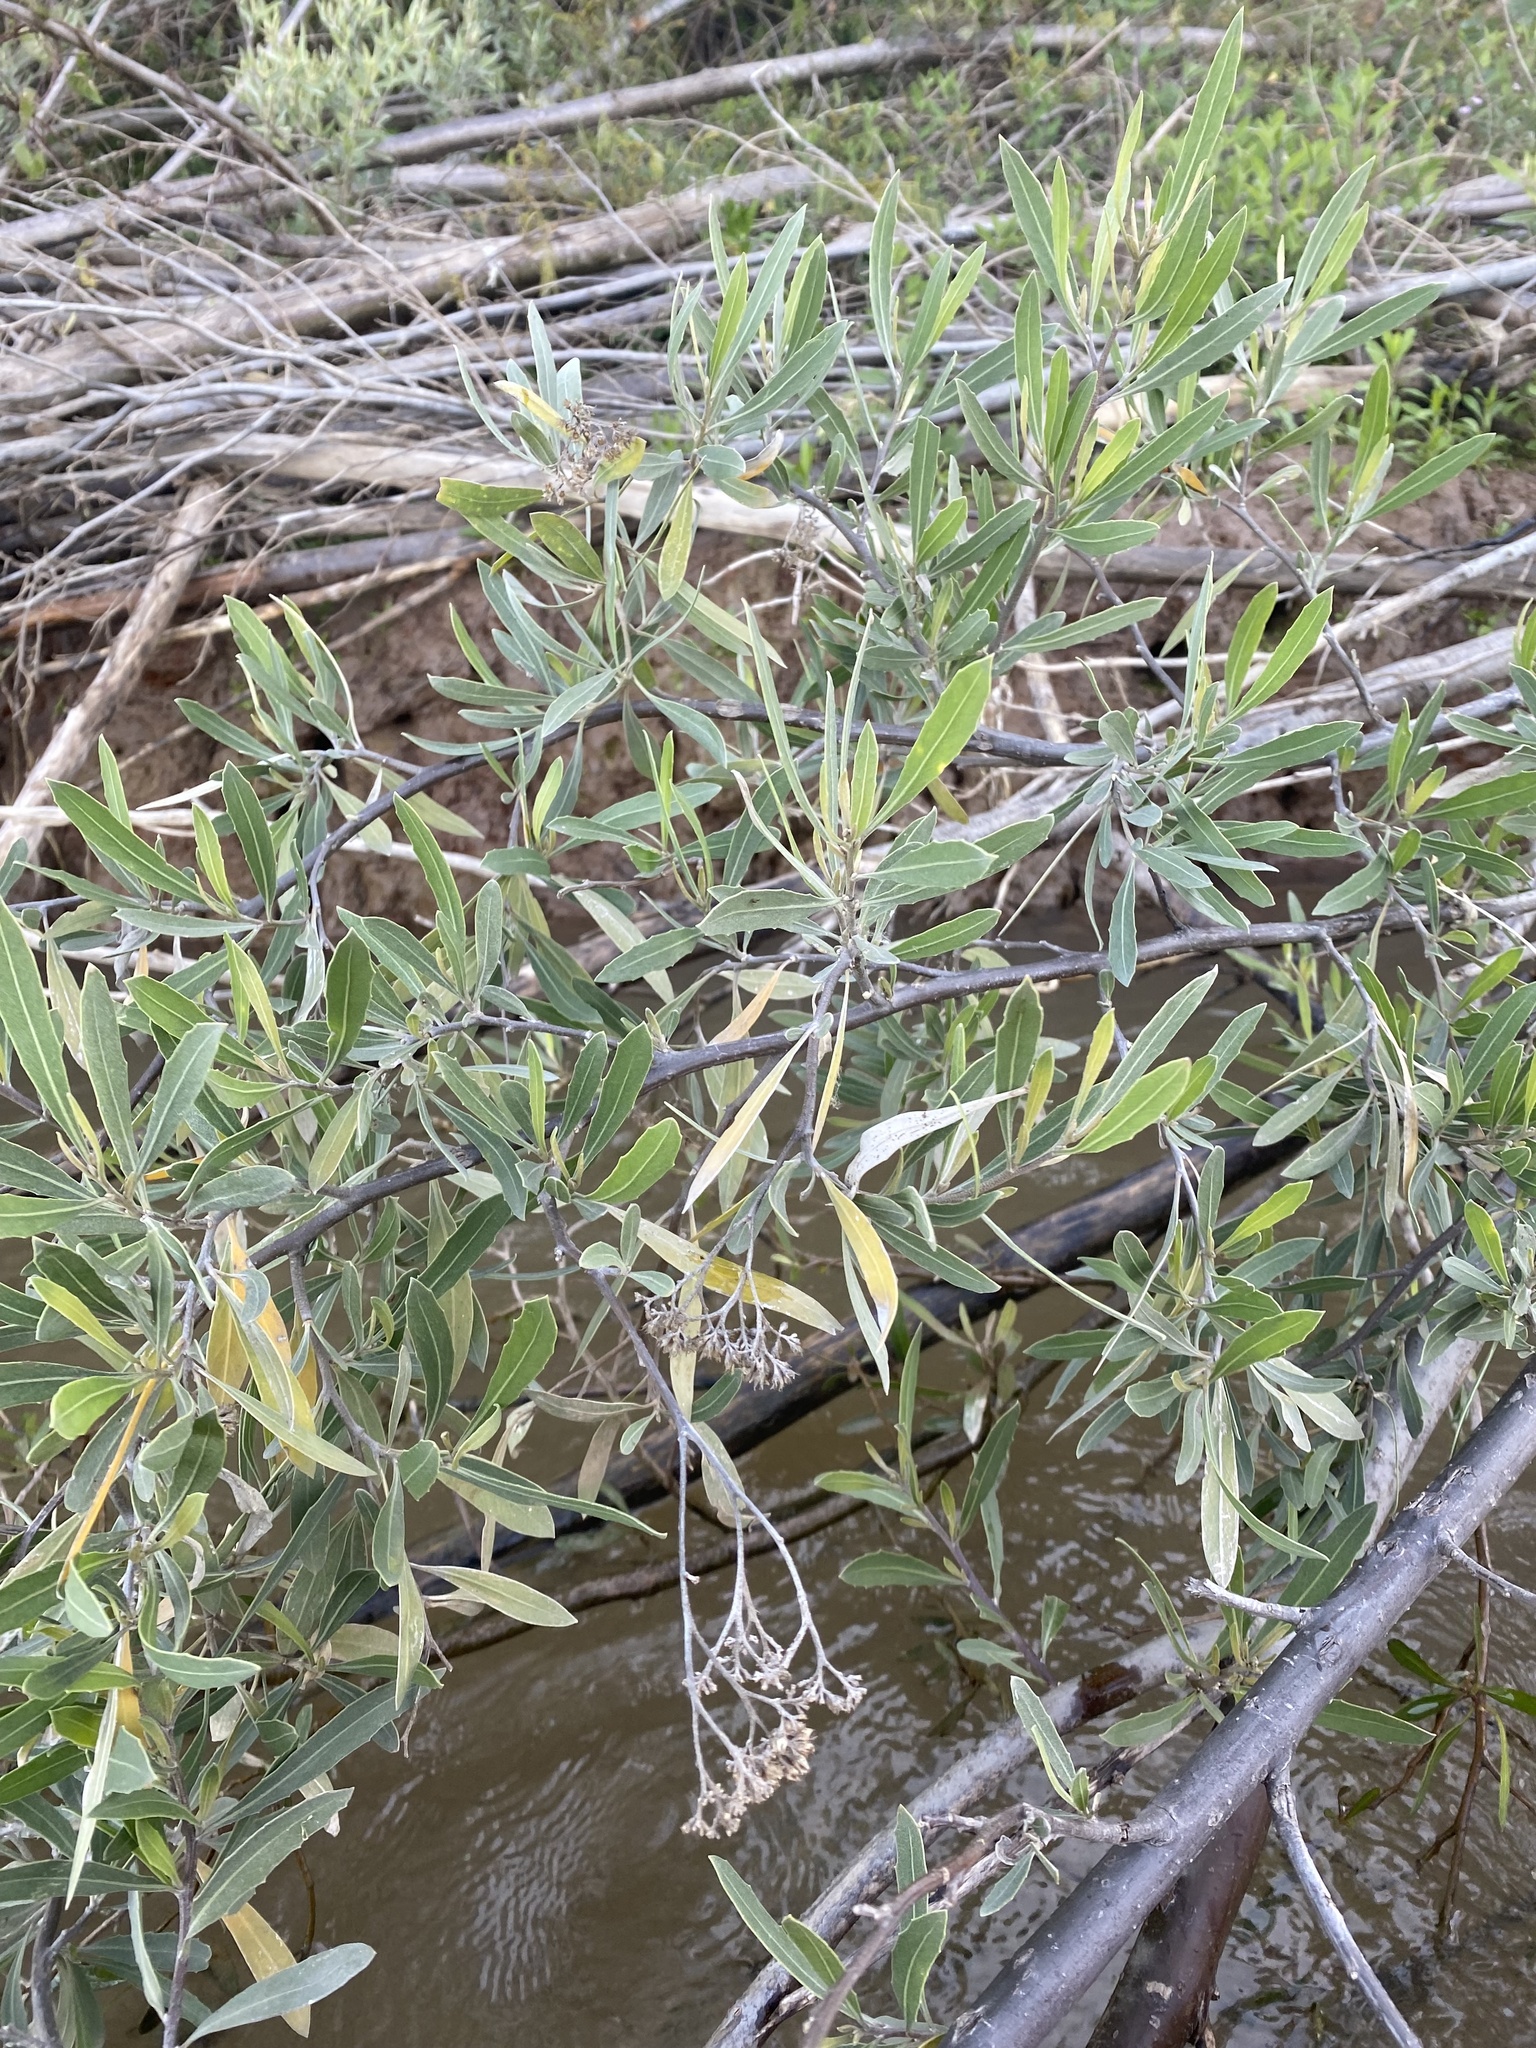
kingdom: Plantae
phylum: Tracheophyta
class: Magnoliopsida
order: Asterales
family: Asteraceae
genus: Tessaria
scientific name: Tessaria integrifolia
